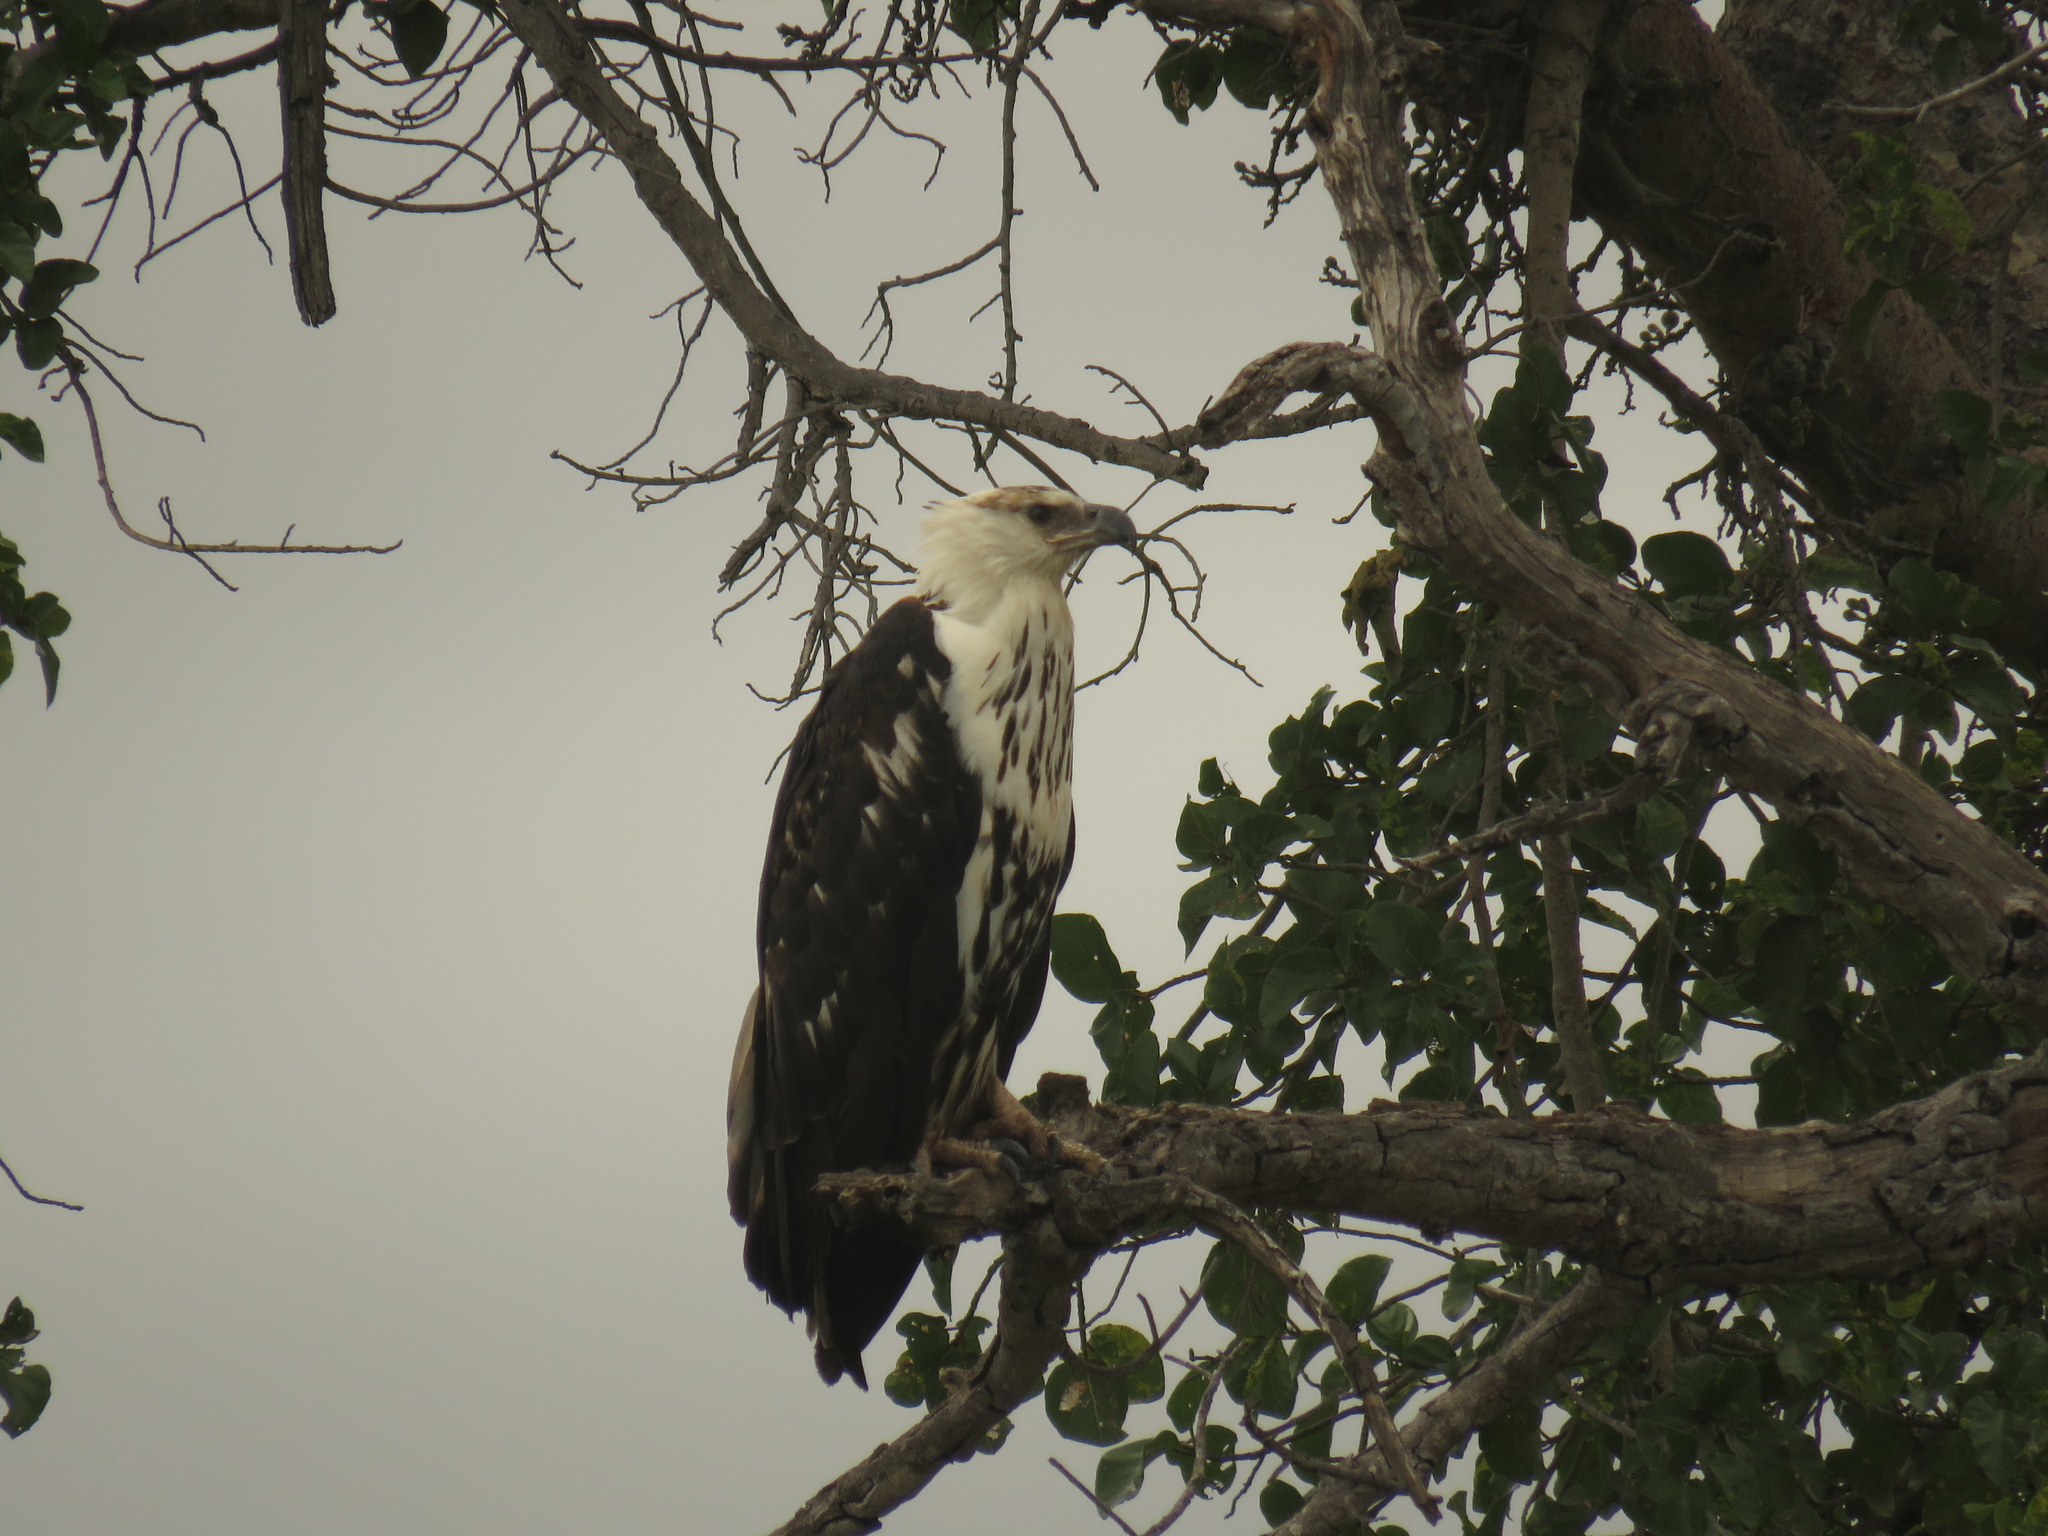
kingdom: Animalia
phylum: Chordata
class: Aves
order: Accipitriformes
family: Accipitridae
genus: Haliaeetus
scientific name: Haliaeetus vocifer
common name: African fish eagle
